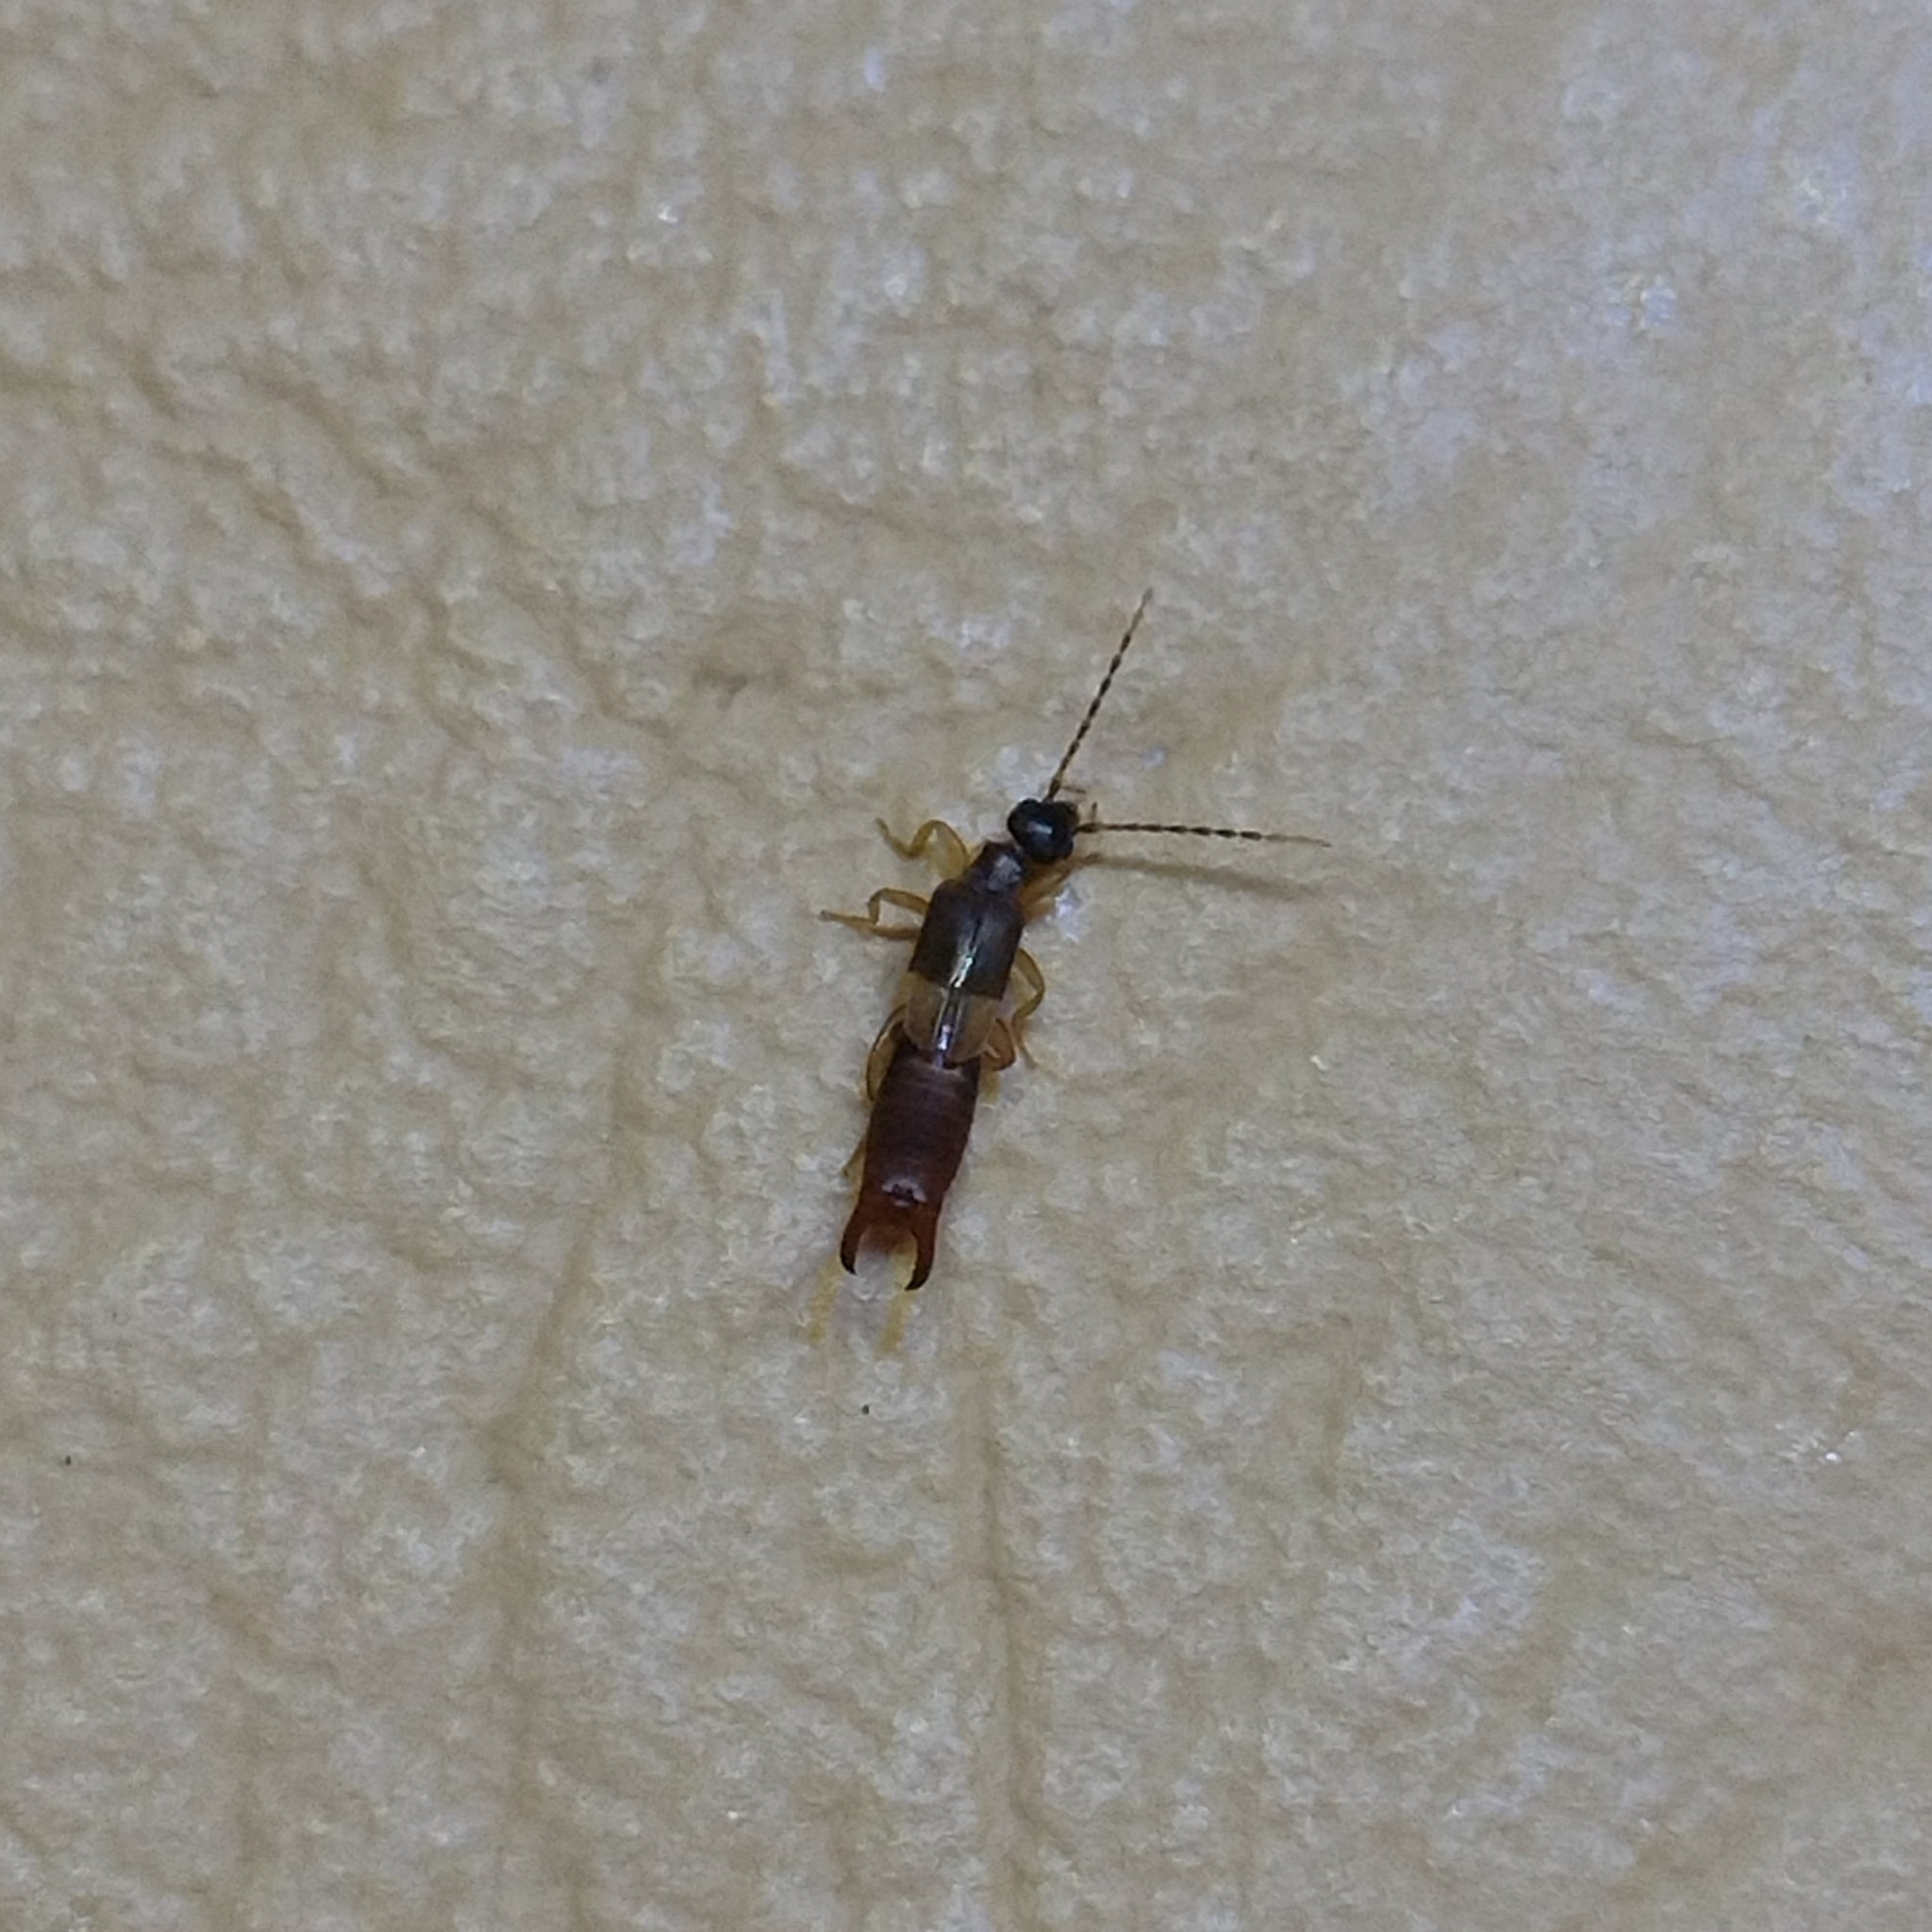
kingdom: Animalia
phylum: Arthropoda
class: Insecta
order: Dermaptera
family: Spongiphoridae
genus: Labia
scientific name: Labia minor
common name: Lesser earwig
